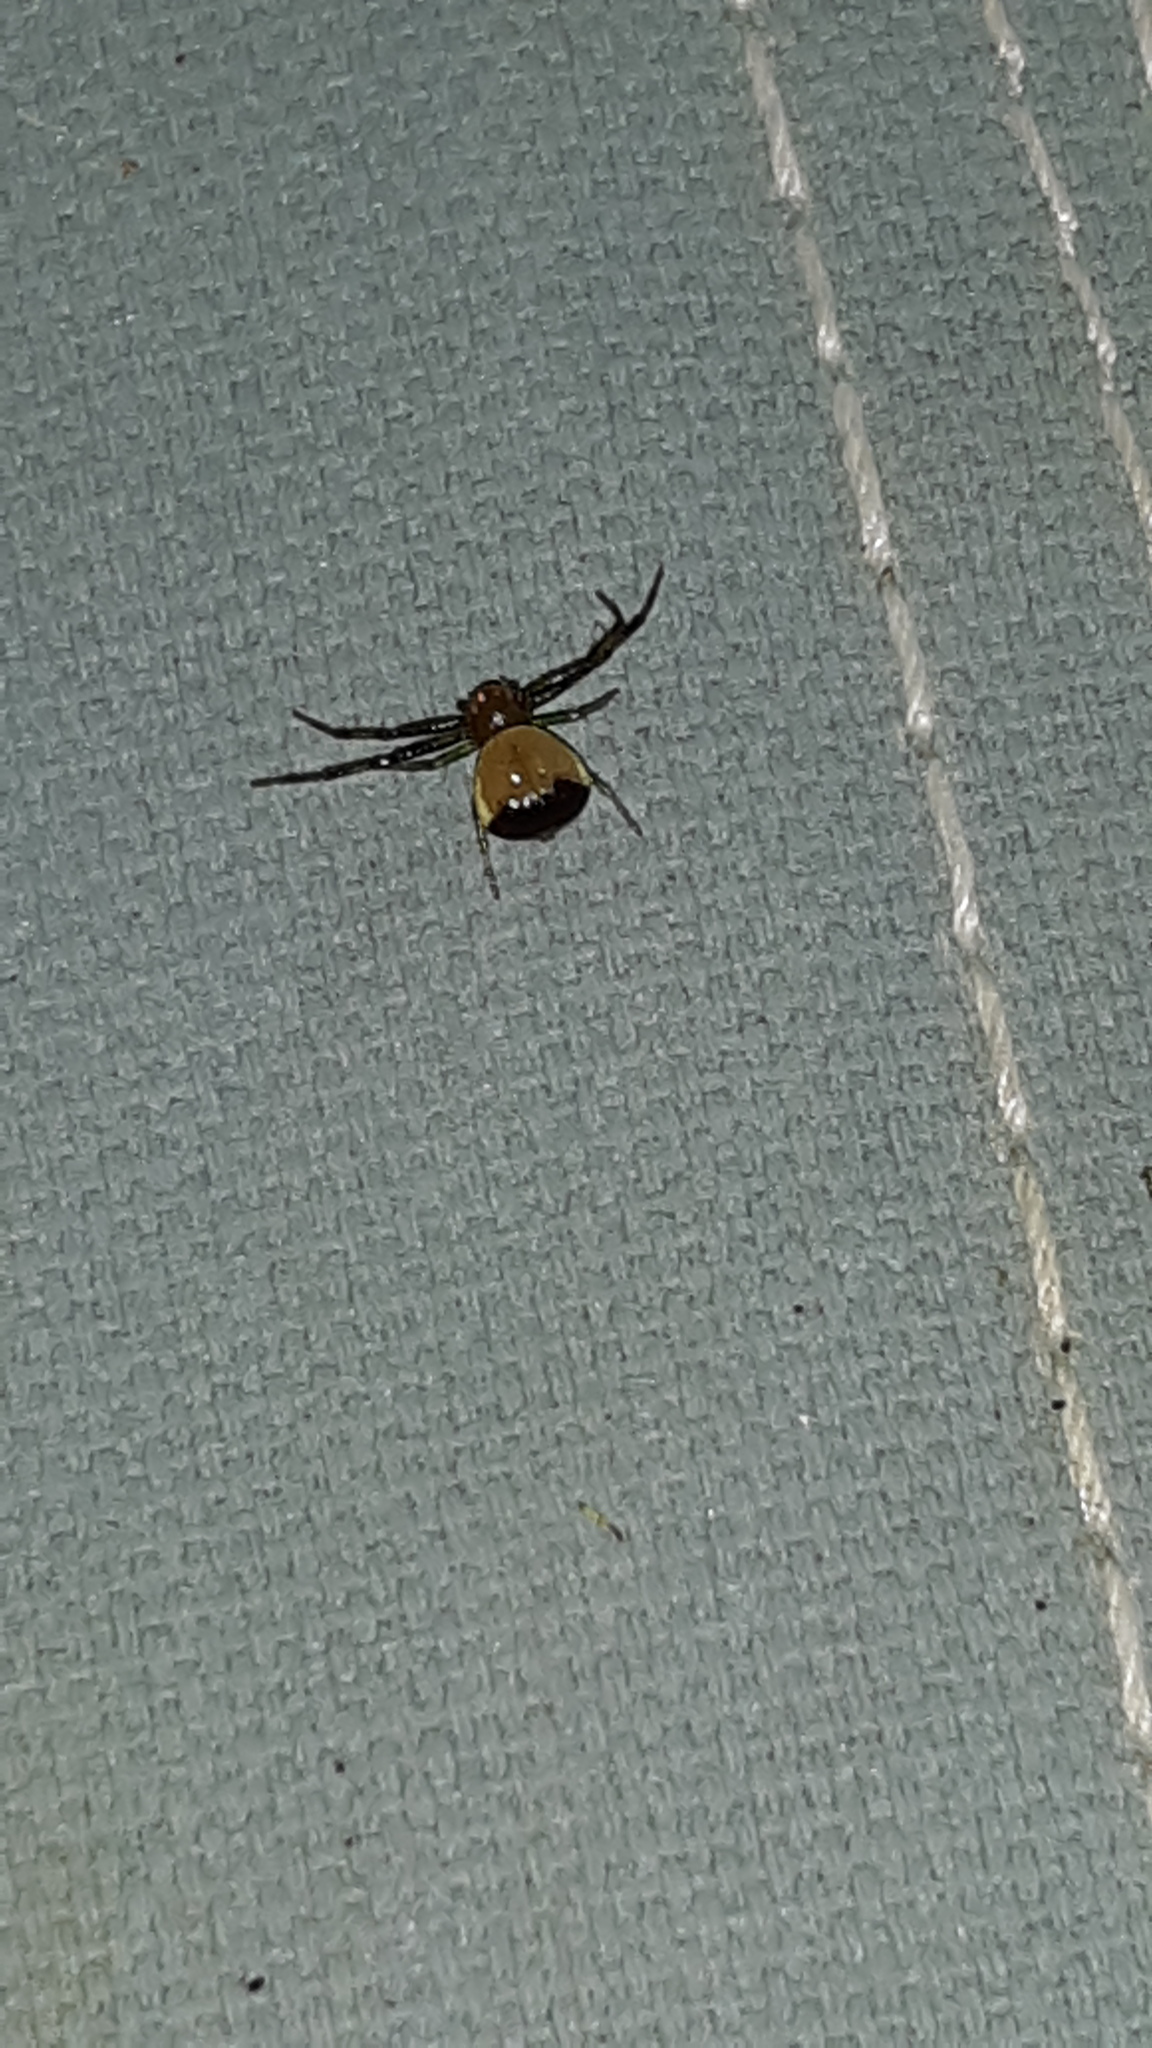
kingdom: Animalia
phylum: Arthropoda
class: Arachnida
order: Araneae
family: Thomisidae
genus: Synema
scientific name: Synema parvulum
